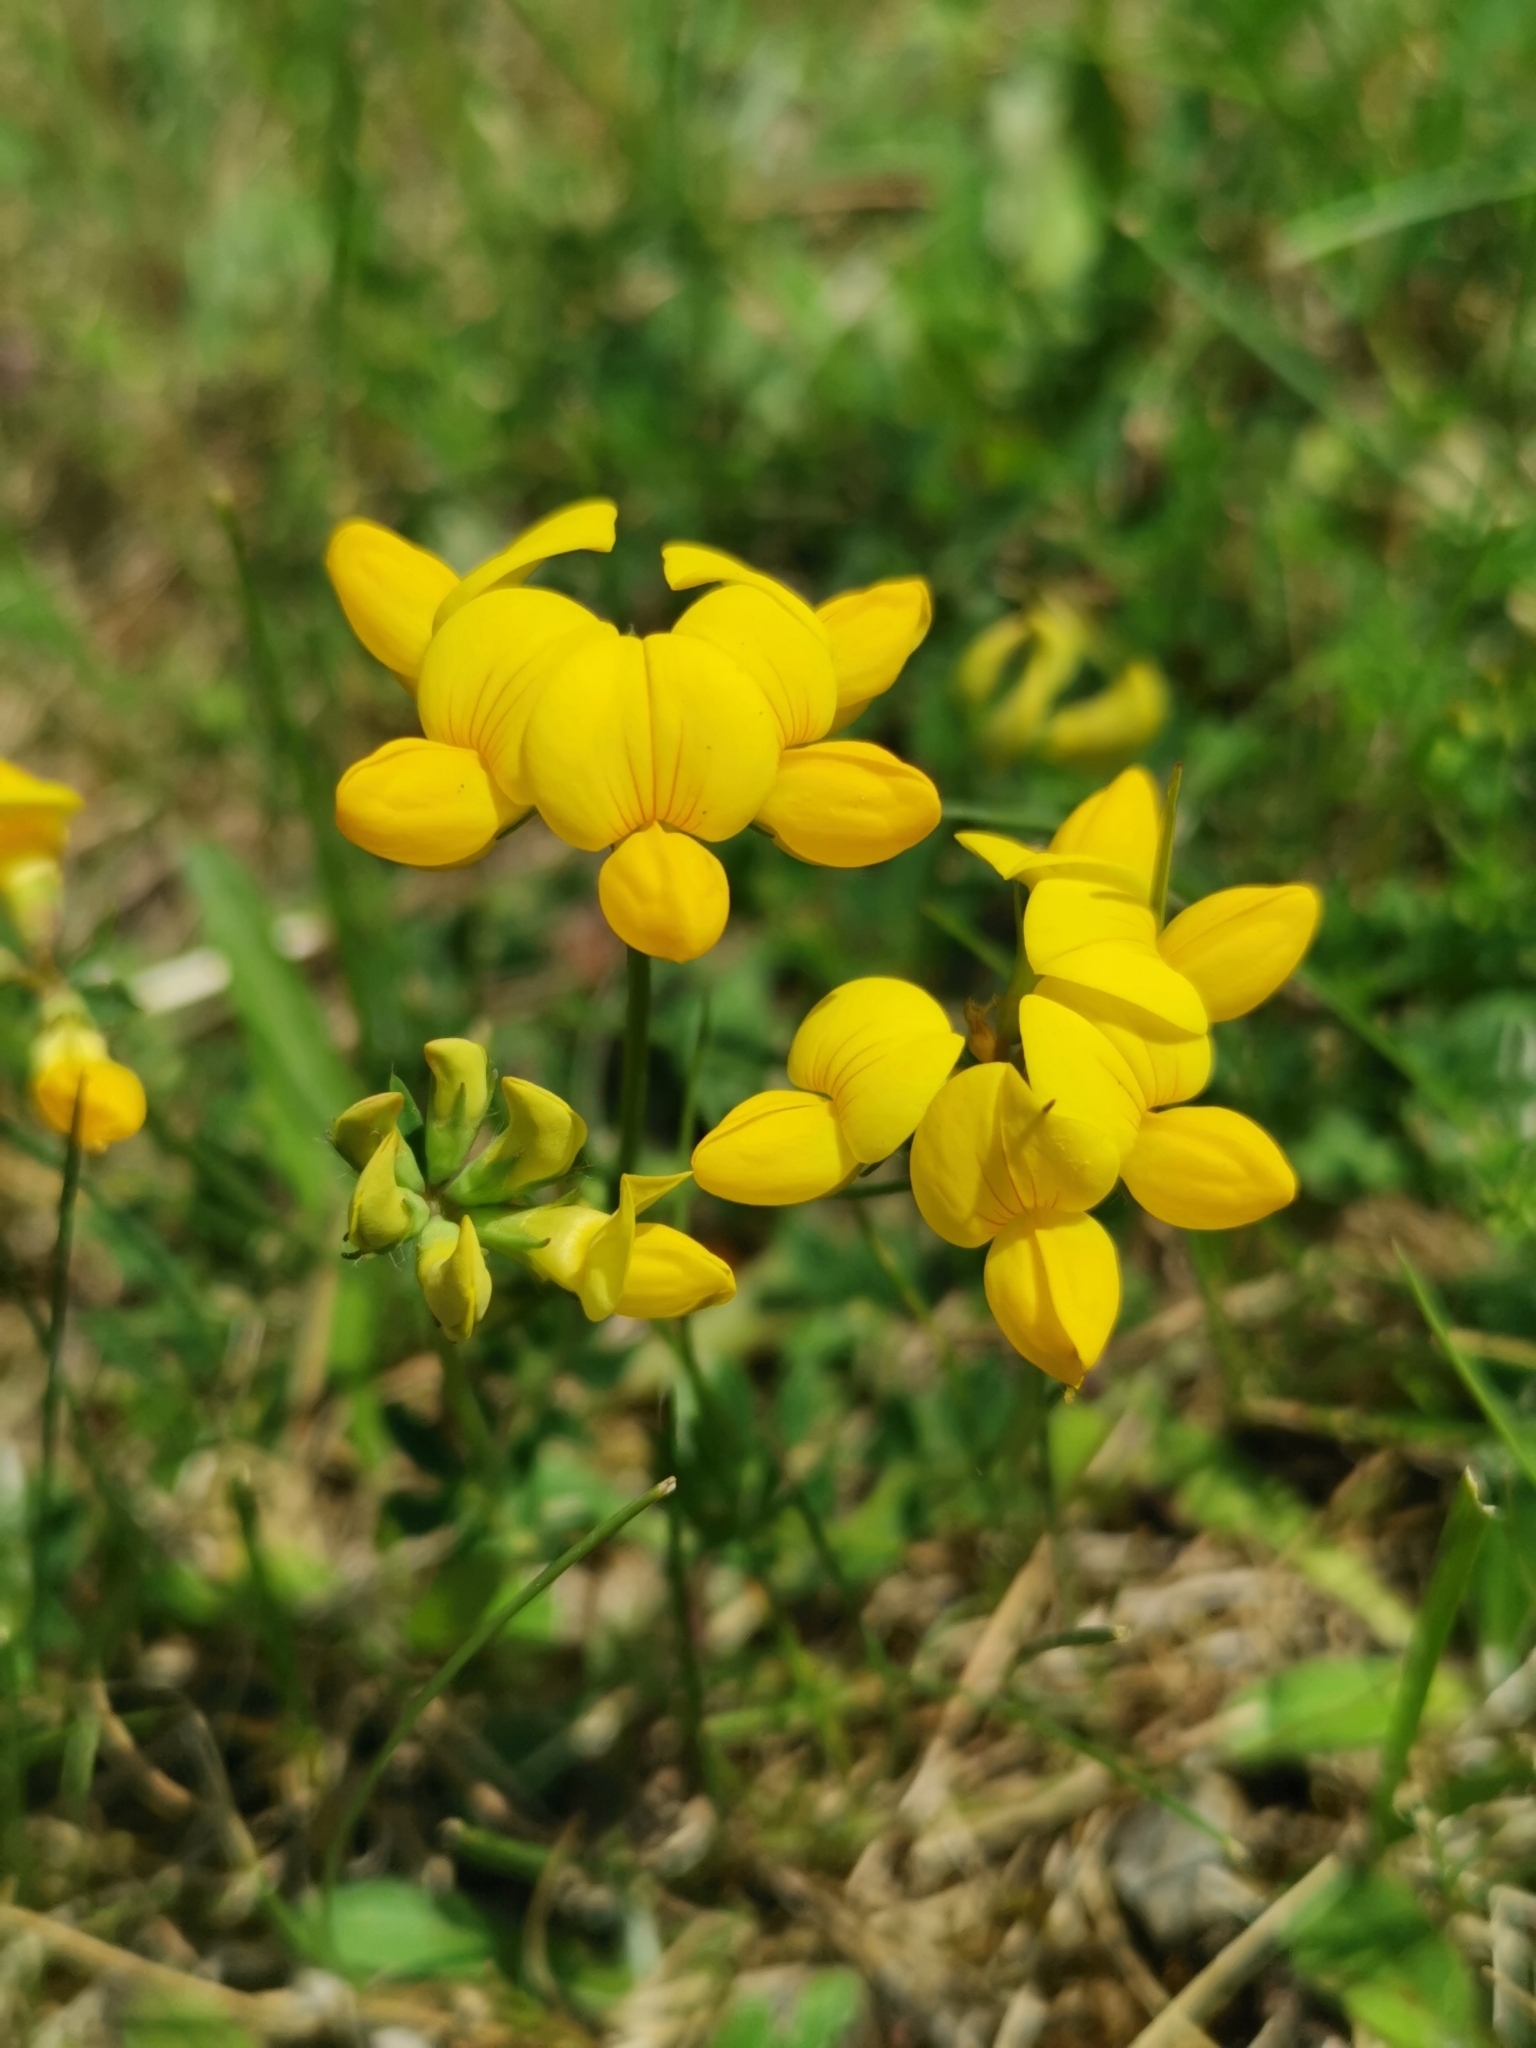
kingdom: Plantae
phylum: Tracheophyta
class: Magnoliopsida
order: Fabales
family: Fabaceae
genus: Lotus
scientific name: Lotus corniculatus
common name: Common bird's-foot-trefoil
